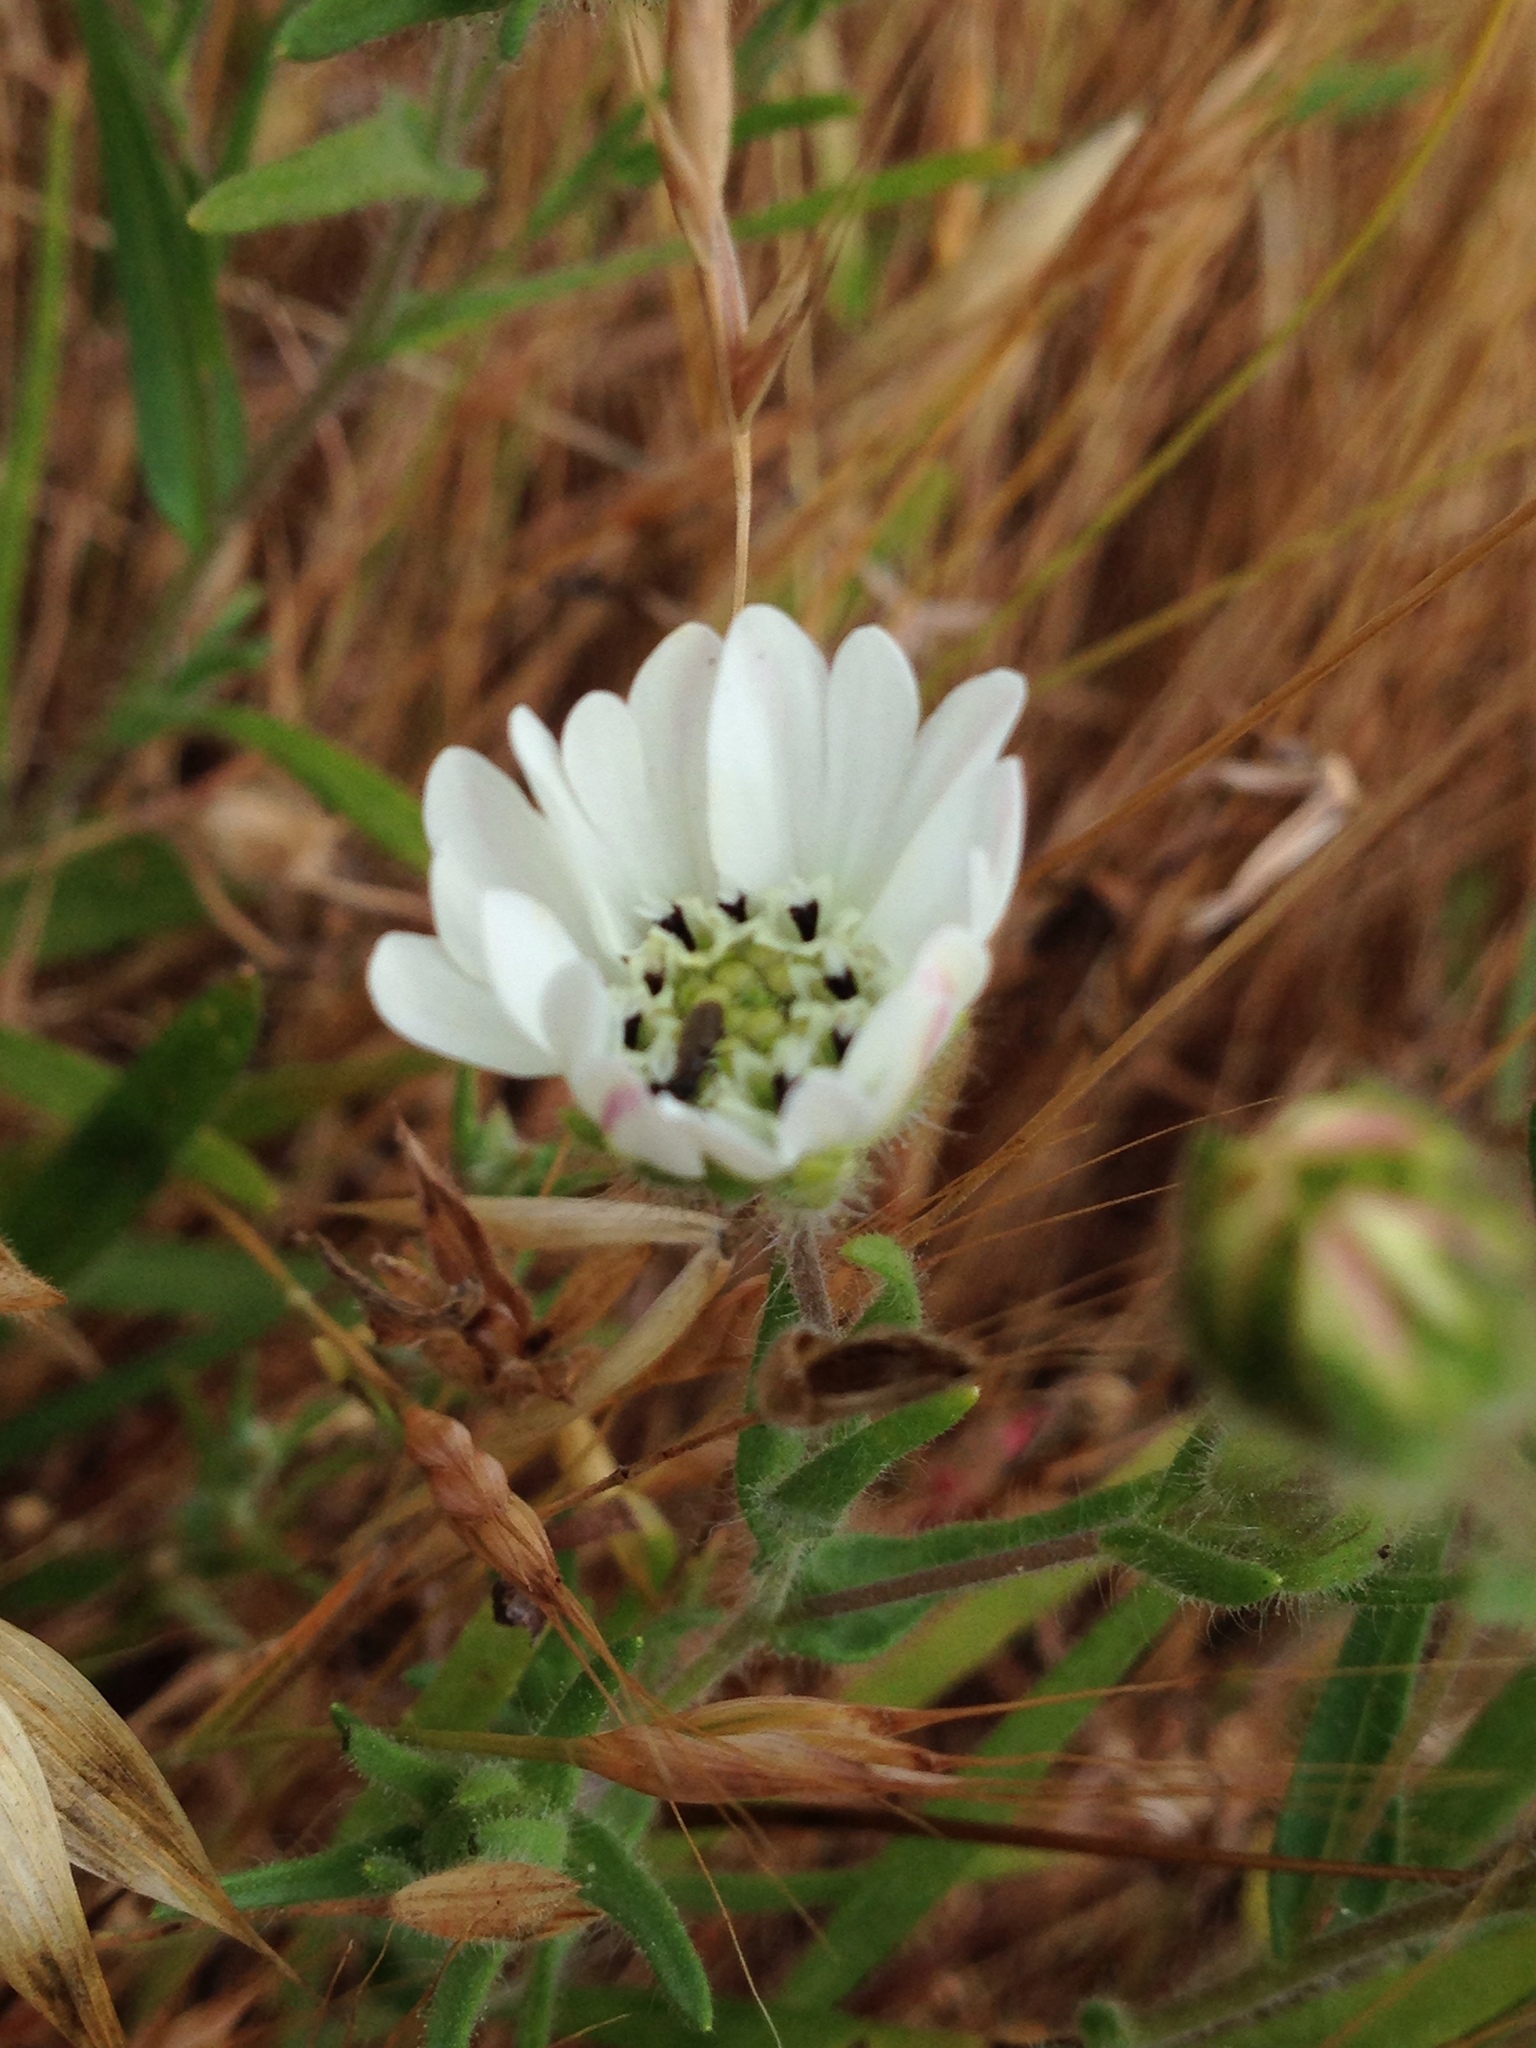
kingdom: Plantae
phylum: Tracheophyta
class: Magnoliopsida
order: Asterales
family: Asteraceae
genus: Hemizonia
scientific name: Hemizonia congesta
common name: Hayfield tarweed
